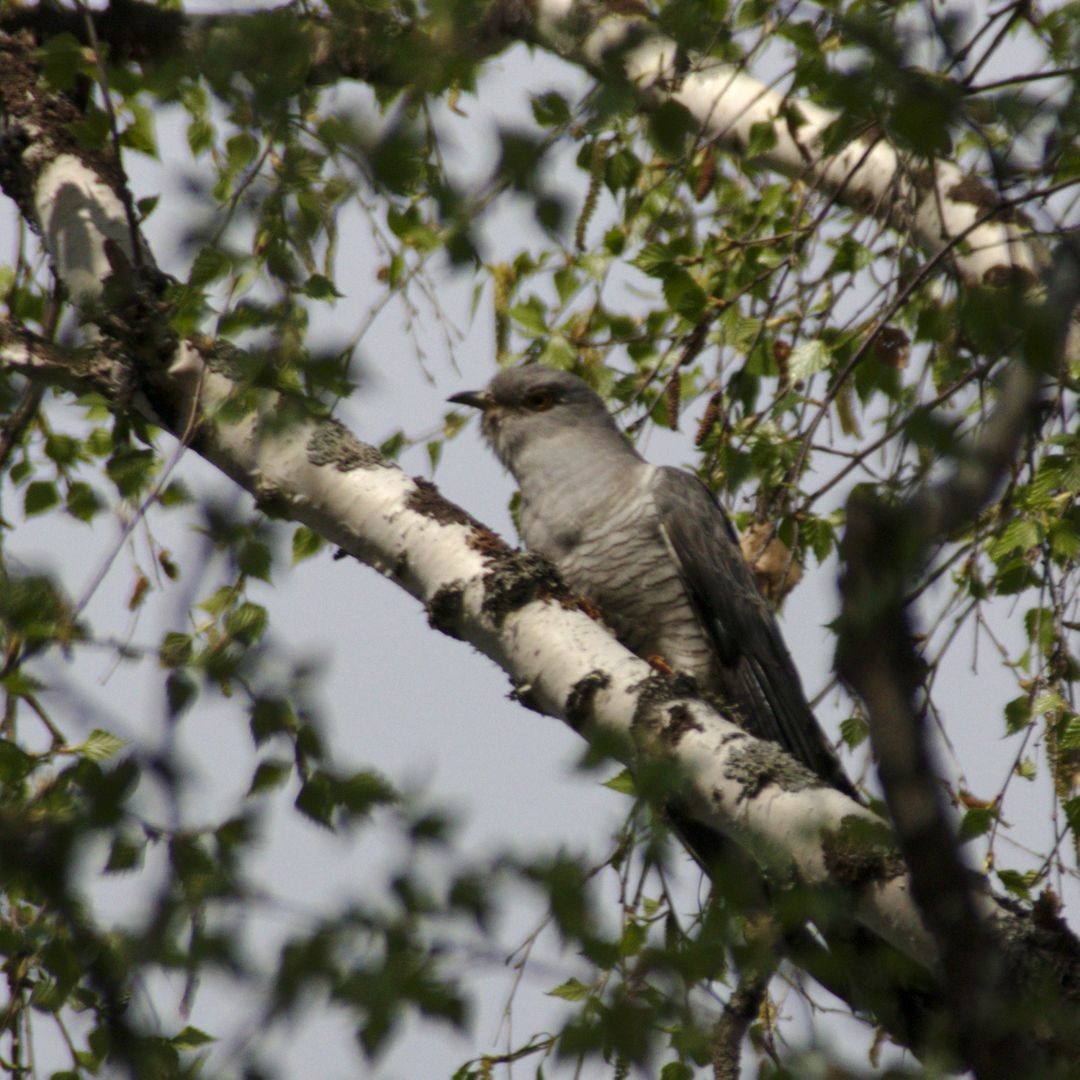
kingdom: Animalia
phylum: Chordata
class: Aves
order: Cuculiformes
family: Cuculidae
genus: Cuculus
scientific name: Cuculus canorus
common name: Common cuckoo
